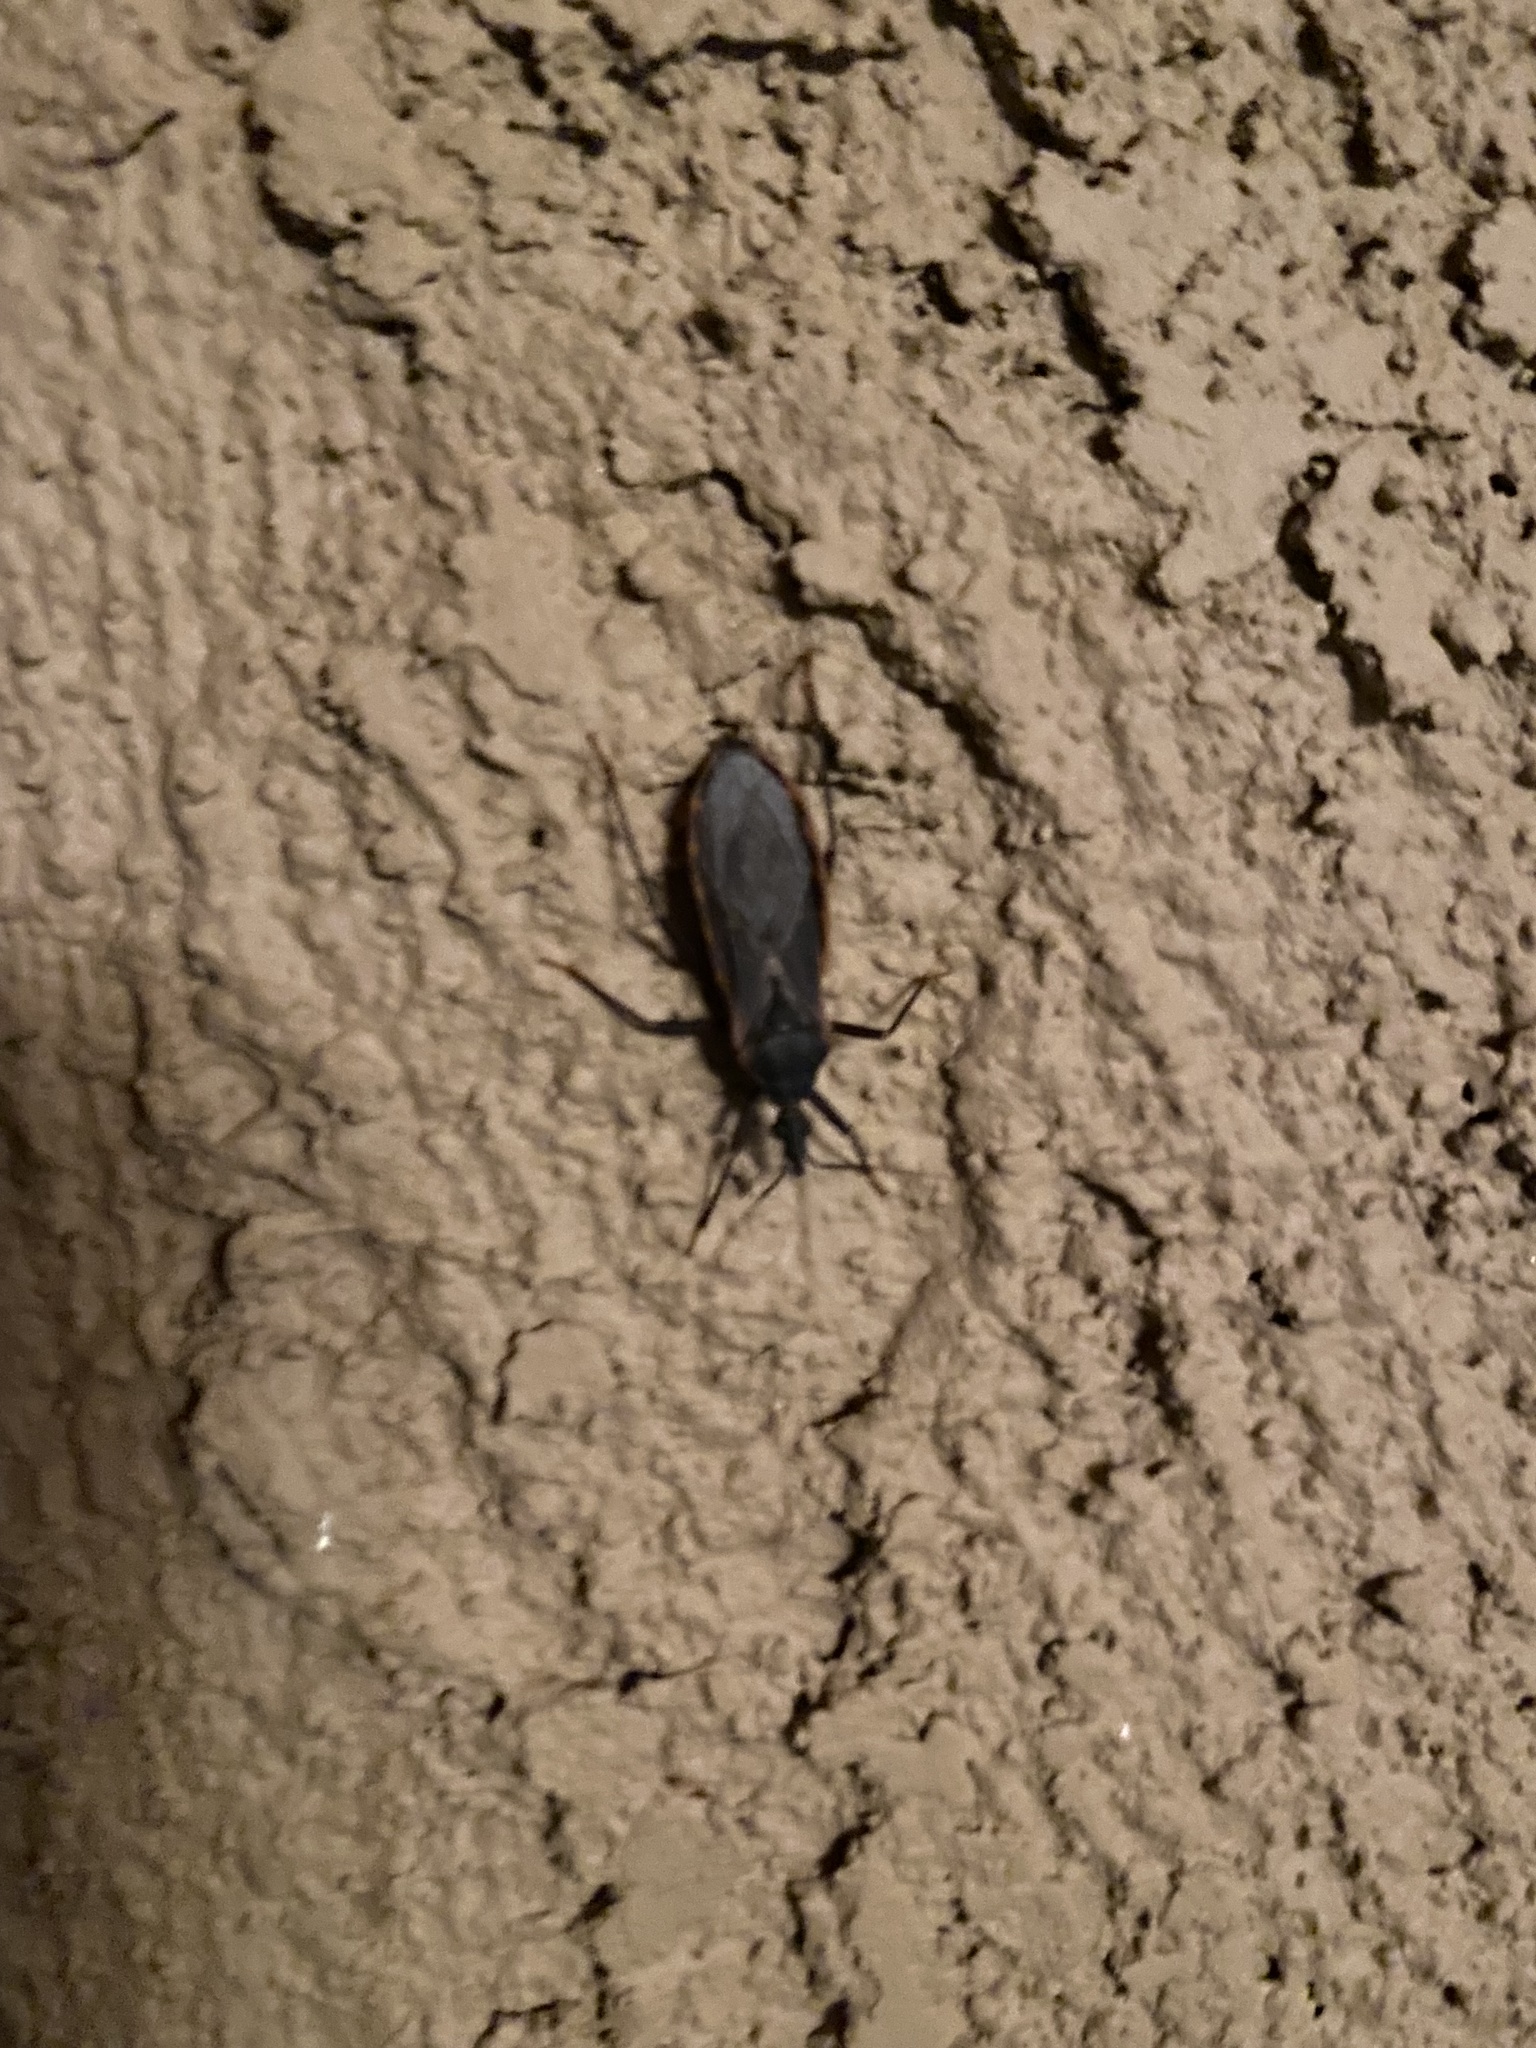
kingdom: Animalia
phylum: Arthropoda
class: Insecta
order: Hemiptera
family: Reduviidae
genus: Triatoma
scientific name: Triatoma rubida
